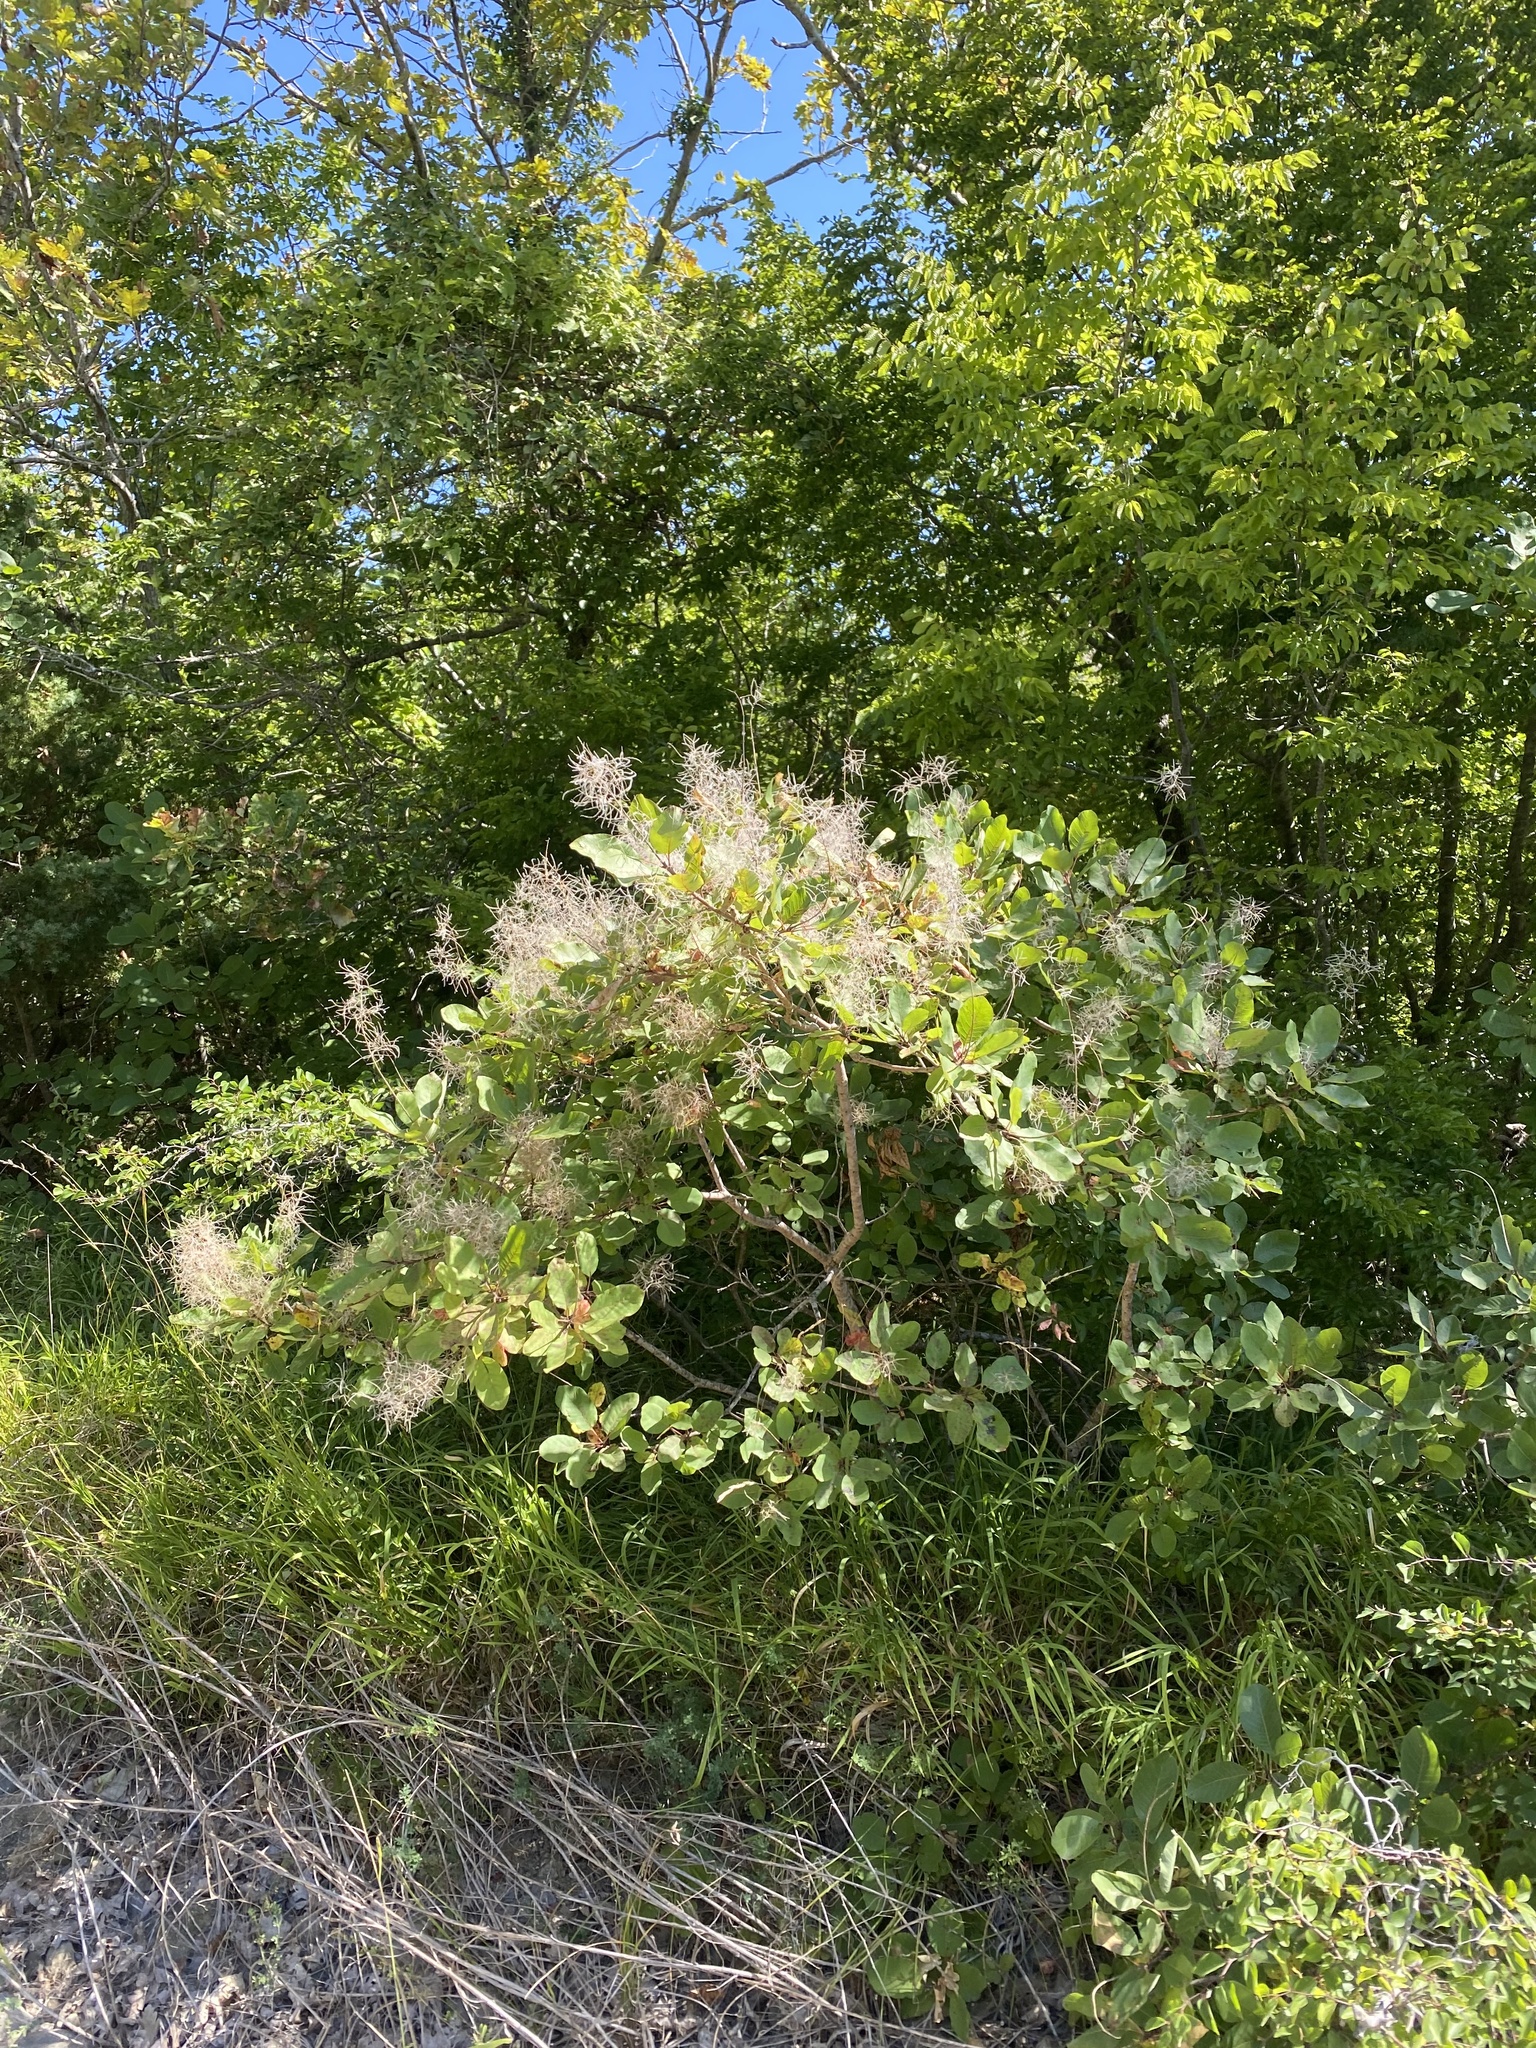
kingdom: Plantae
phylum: Tracheophyta
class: Magnoliopsida
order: Sapindales
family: Anacardiaceae
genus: Cotinus
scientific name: Cotinus coggygria
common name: Smoke-tree
